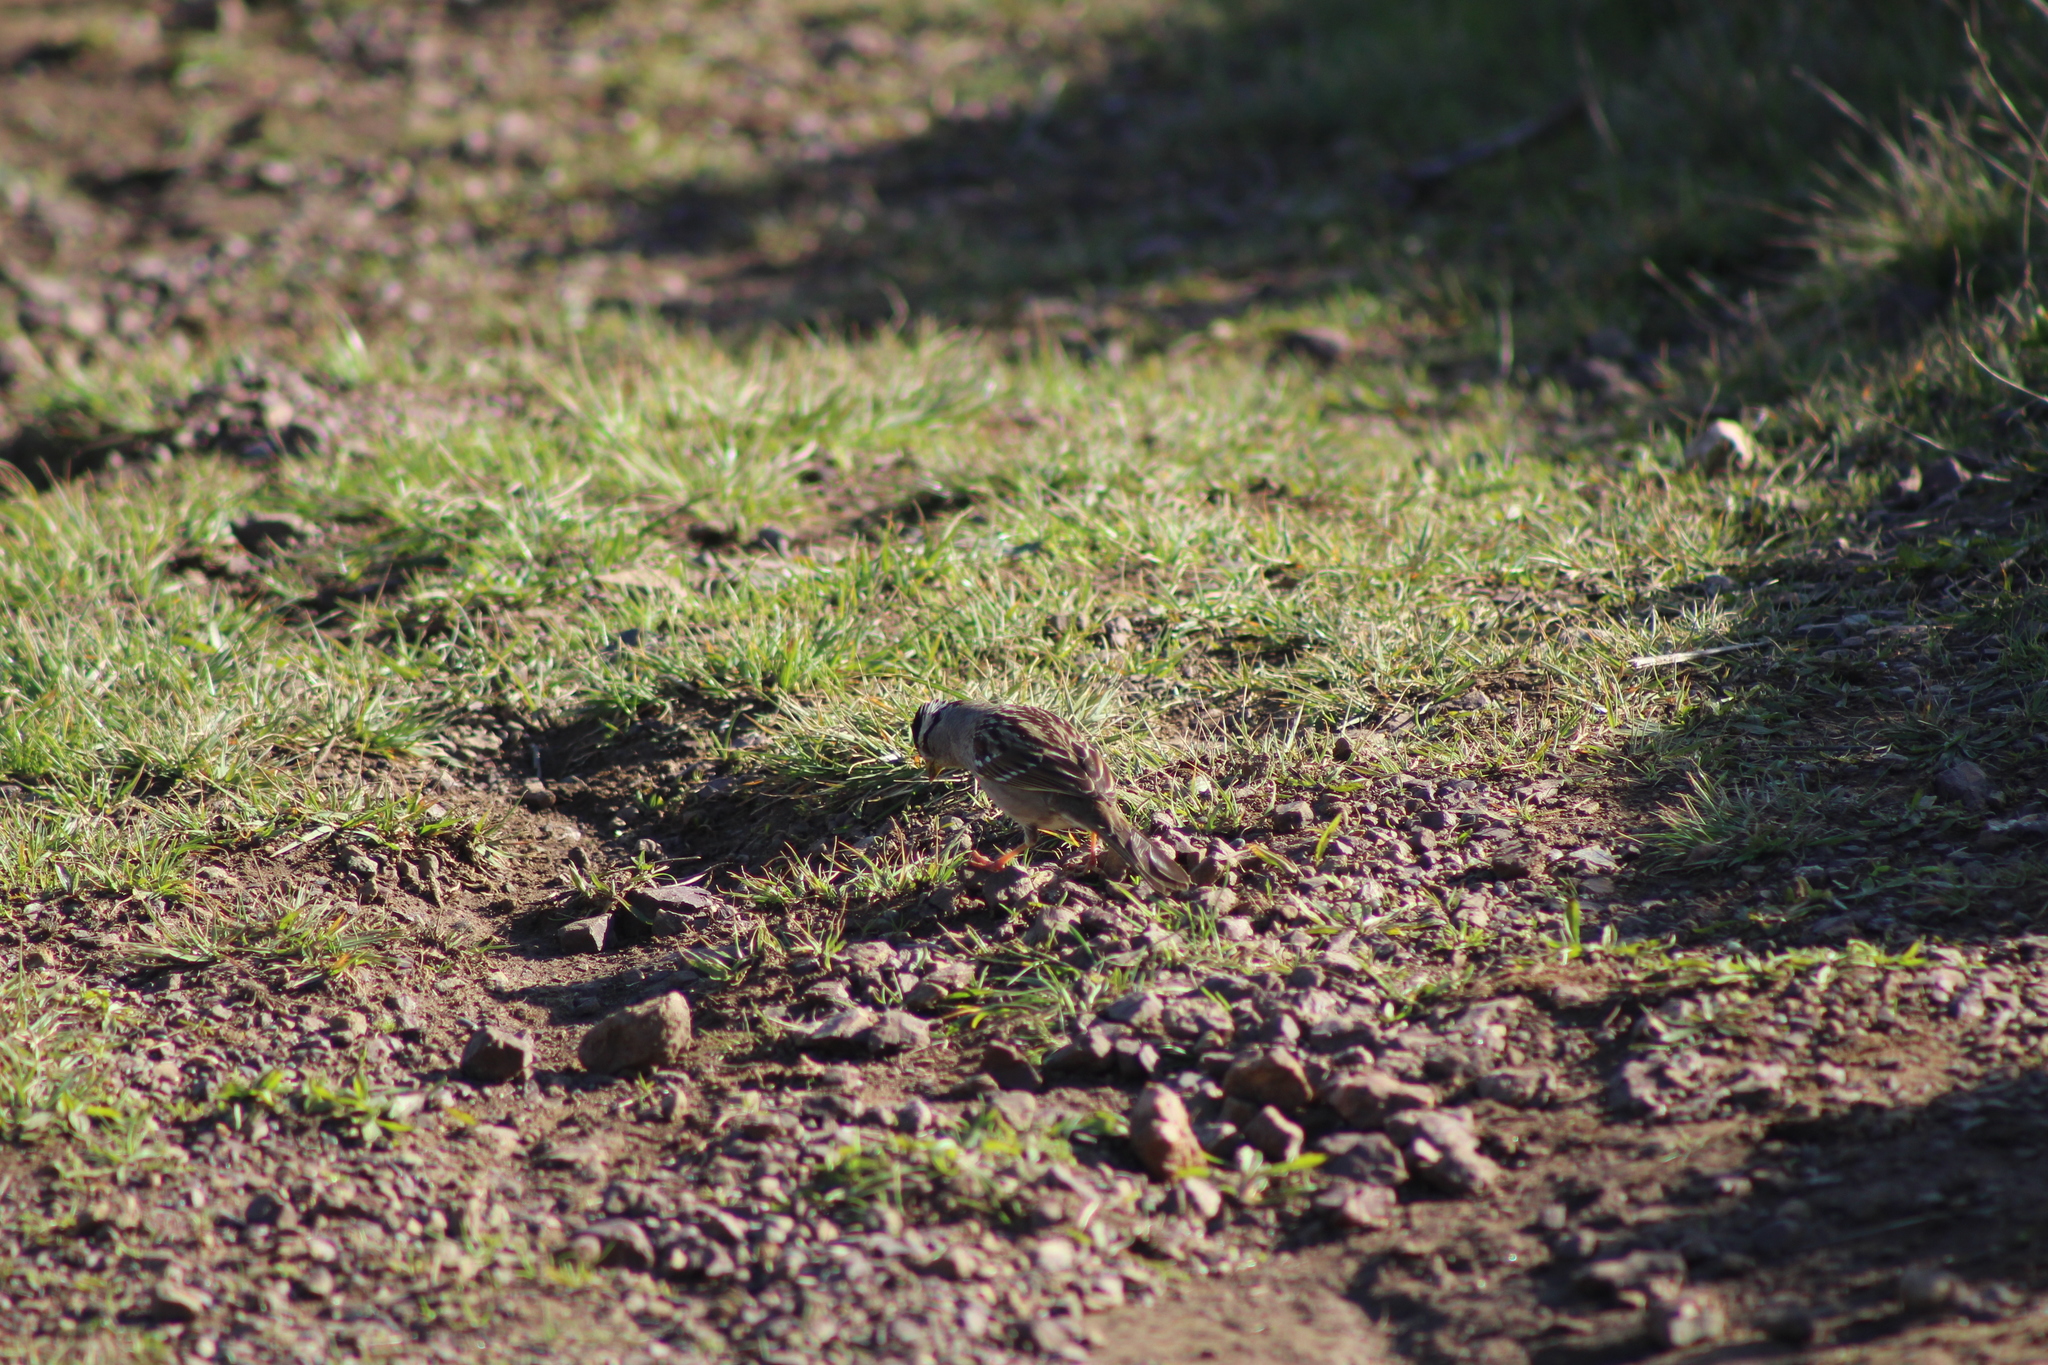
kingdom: Animalia
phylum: Chordata
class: Aves
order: Passeriformes
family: Passerellidae
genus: Zonotrichia
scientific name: Zonotrichia leucophrys
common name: White-crowned sparrow
